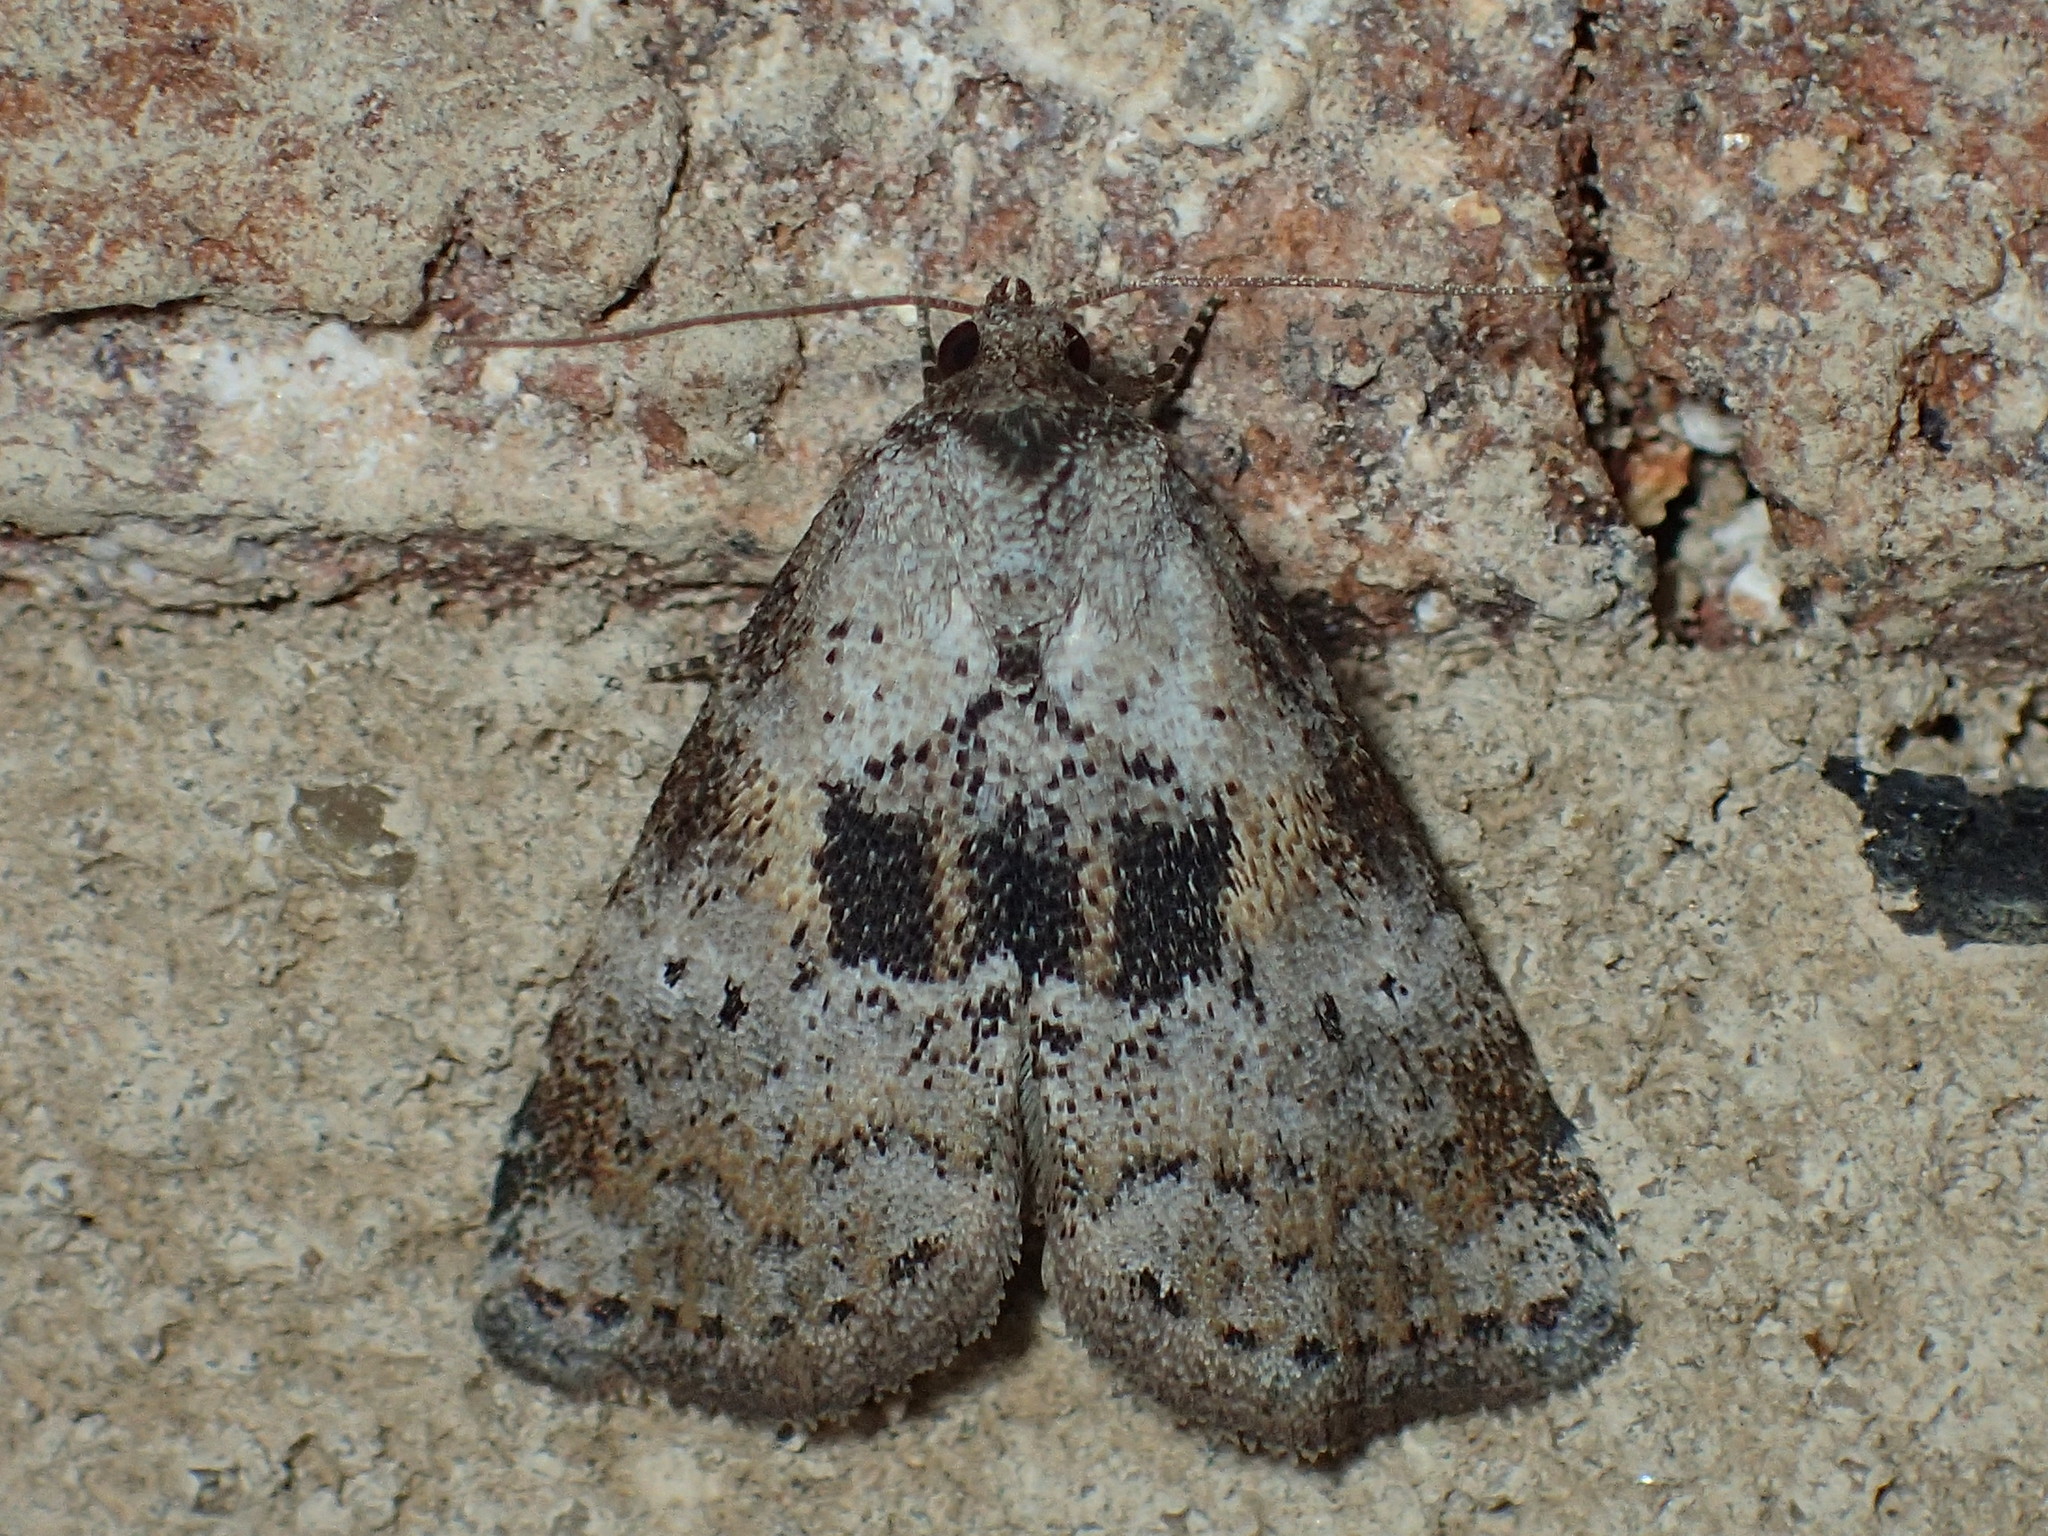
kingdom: Animalia
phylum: Arthropoda
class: Insecta
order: Lepidoptera
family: Erebidae
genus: Hyperstrotia
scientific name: Hyperstrotia secta
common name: Black-patched graylet
